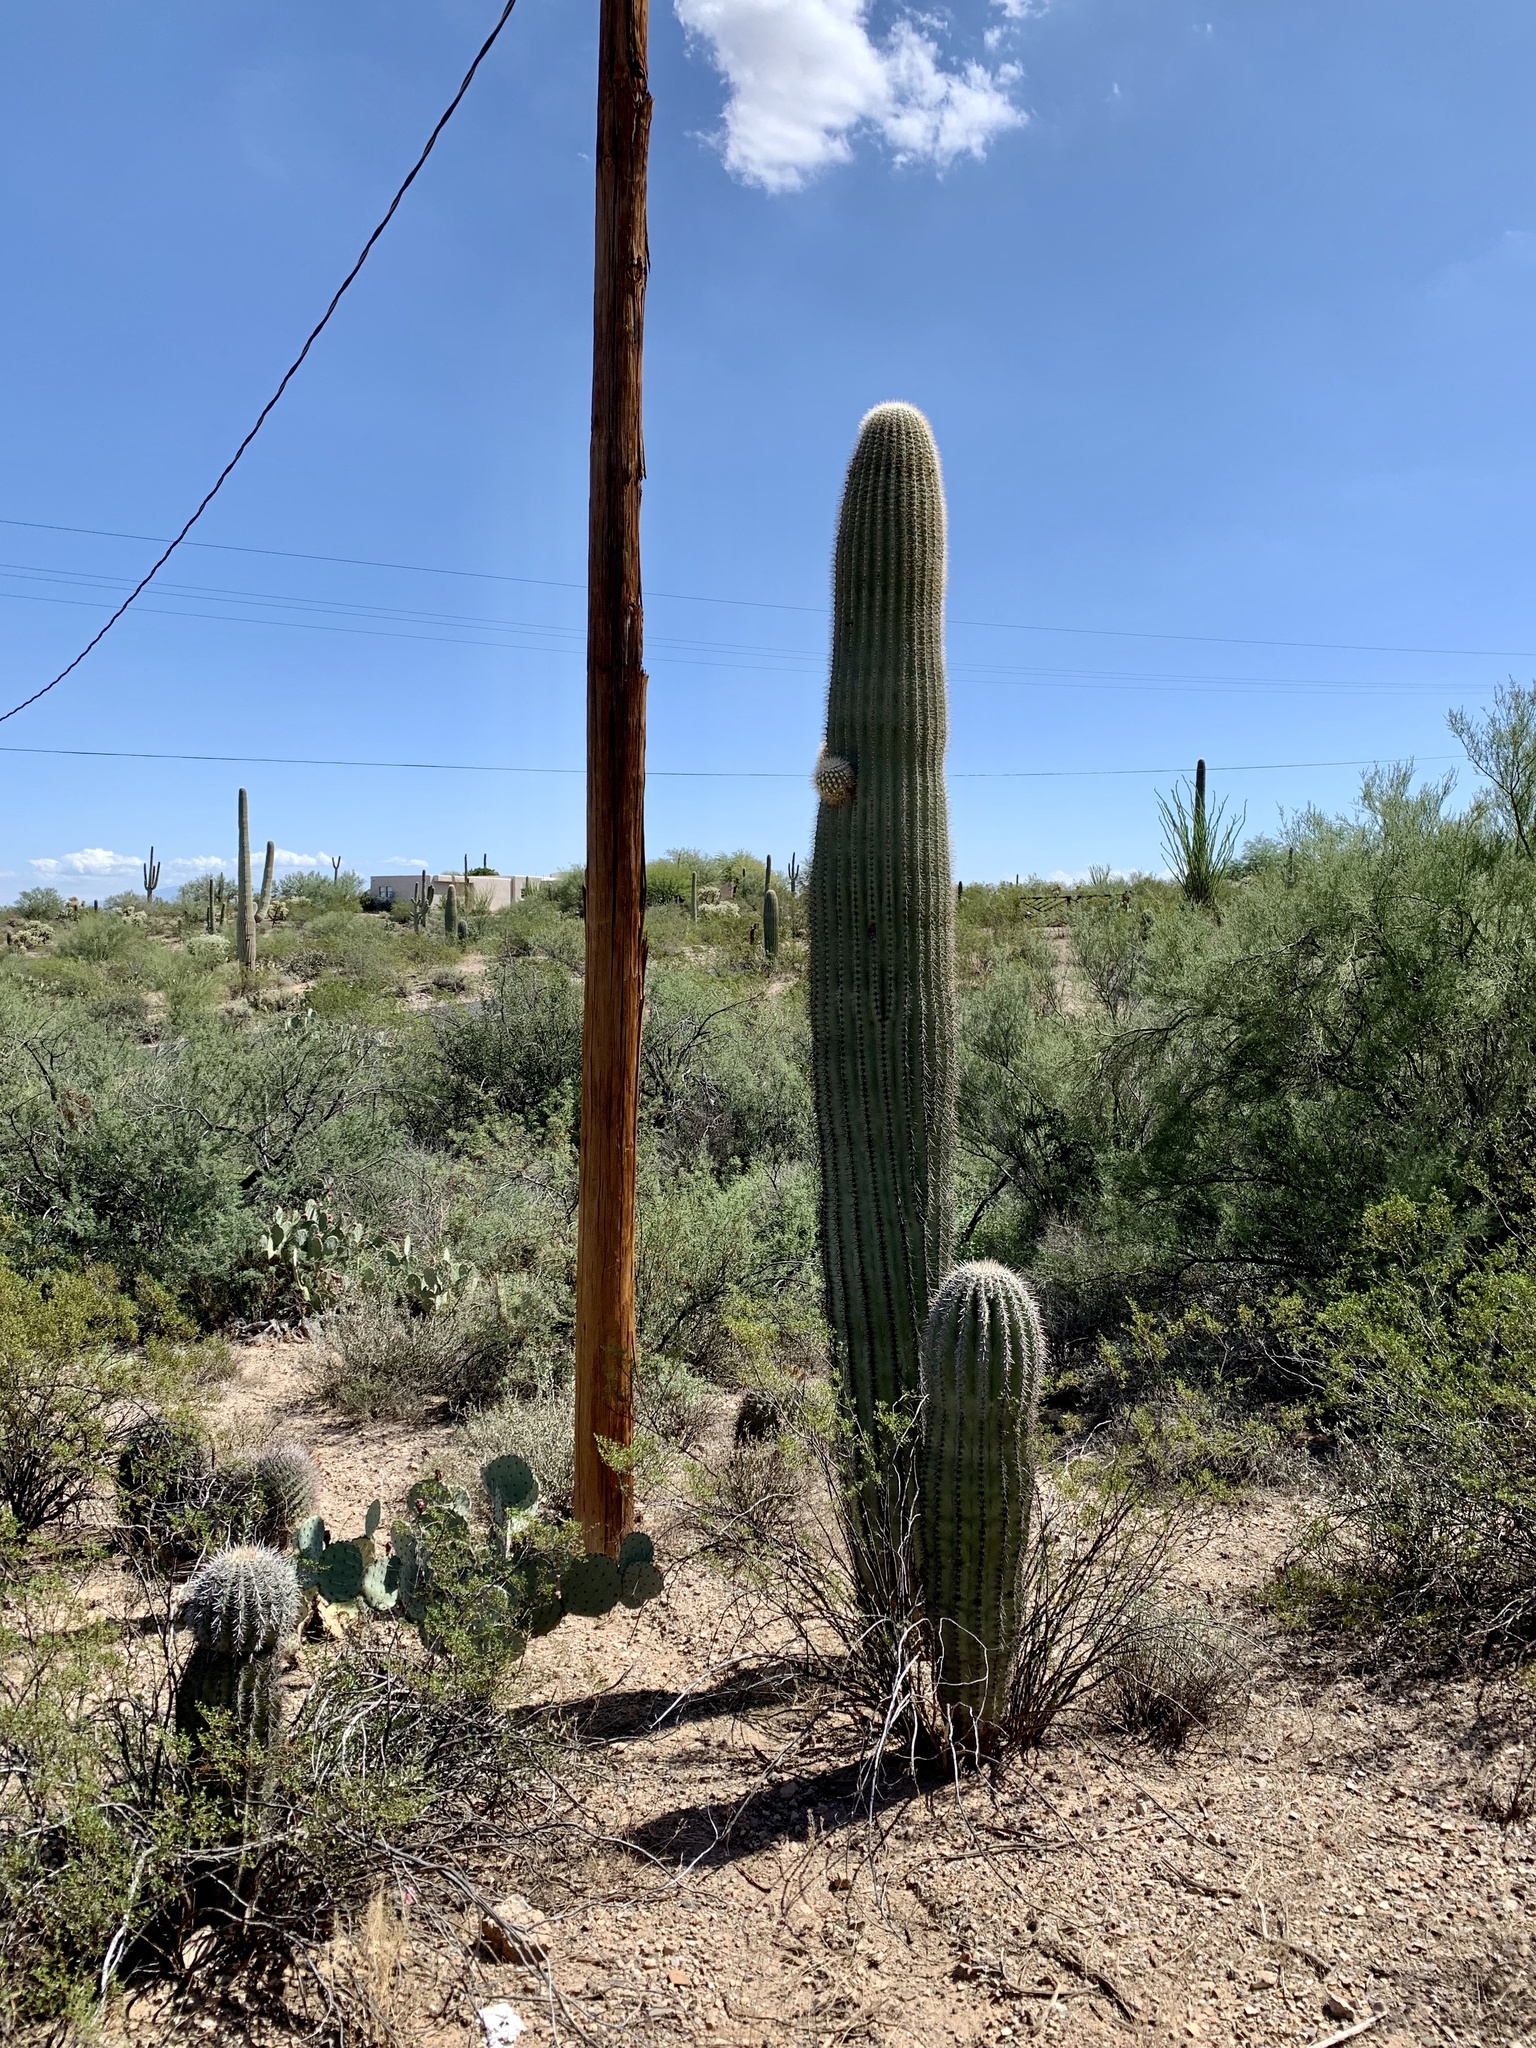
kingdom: Plantae
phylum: Tracheophyta
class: Magnoliopsida
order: Caryophyllales
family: Cactaceae
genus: Carnegiea
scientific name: Carnegiea gigantea
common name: Saguaro
